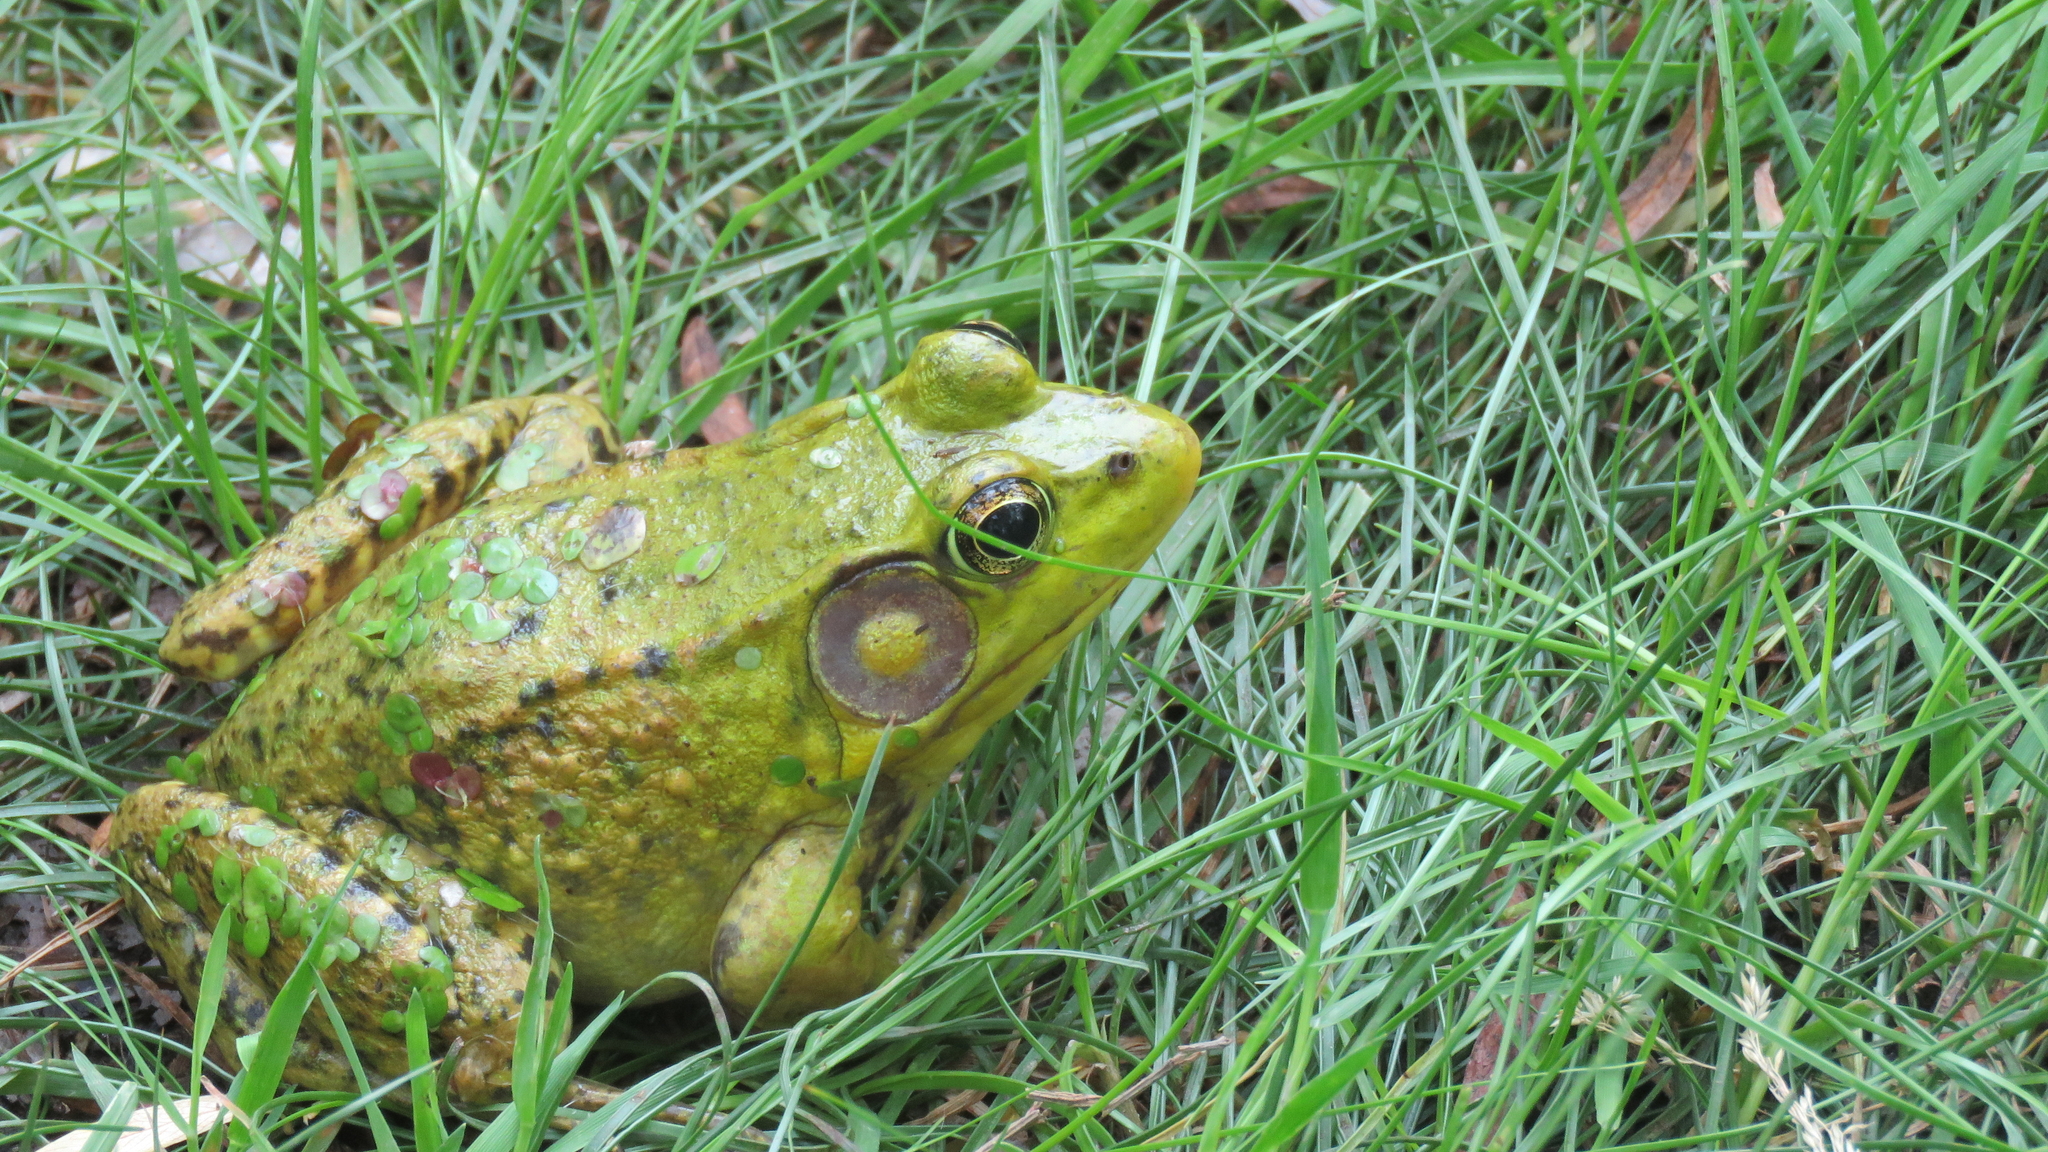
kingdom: Animalia
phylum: Chordata
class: Amphibia
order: Anura
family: Ranidae
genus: Lithobates
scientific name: Lithobates clamitans
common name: Green frog
